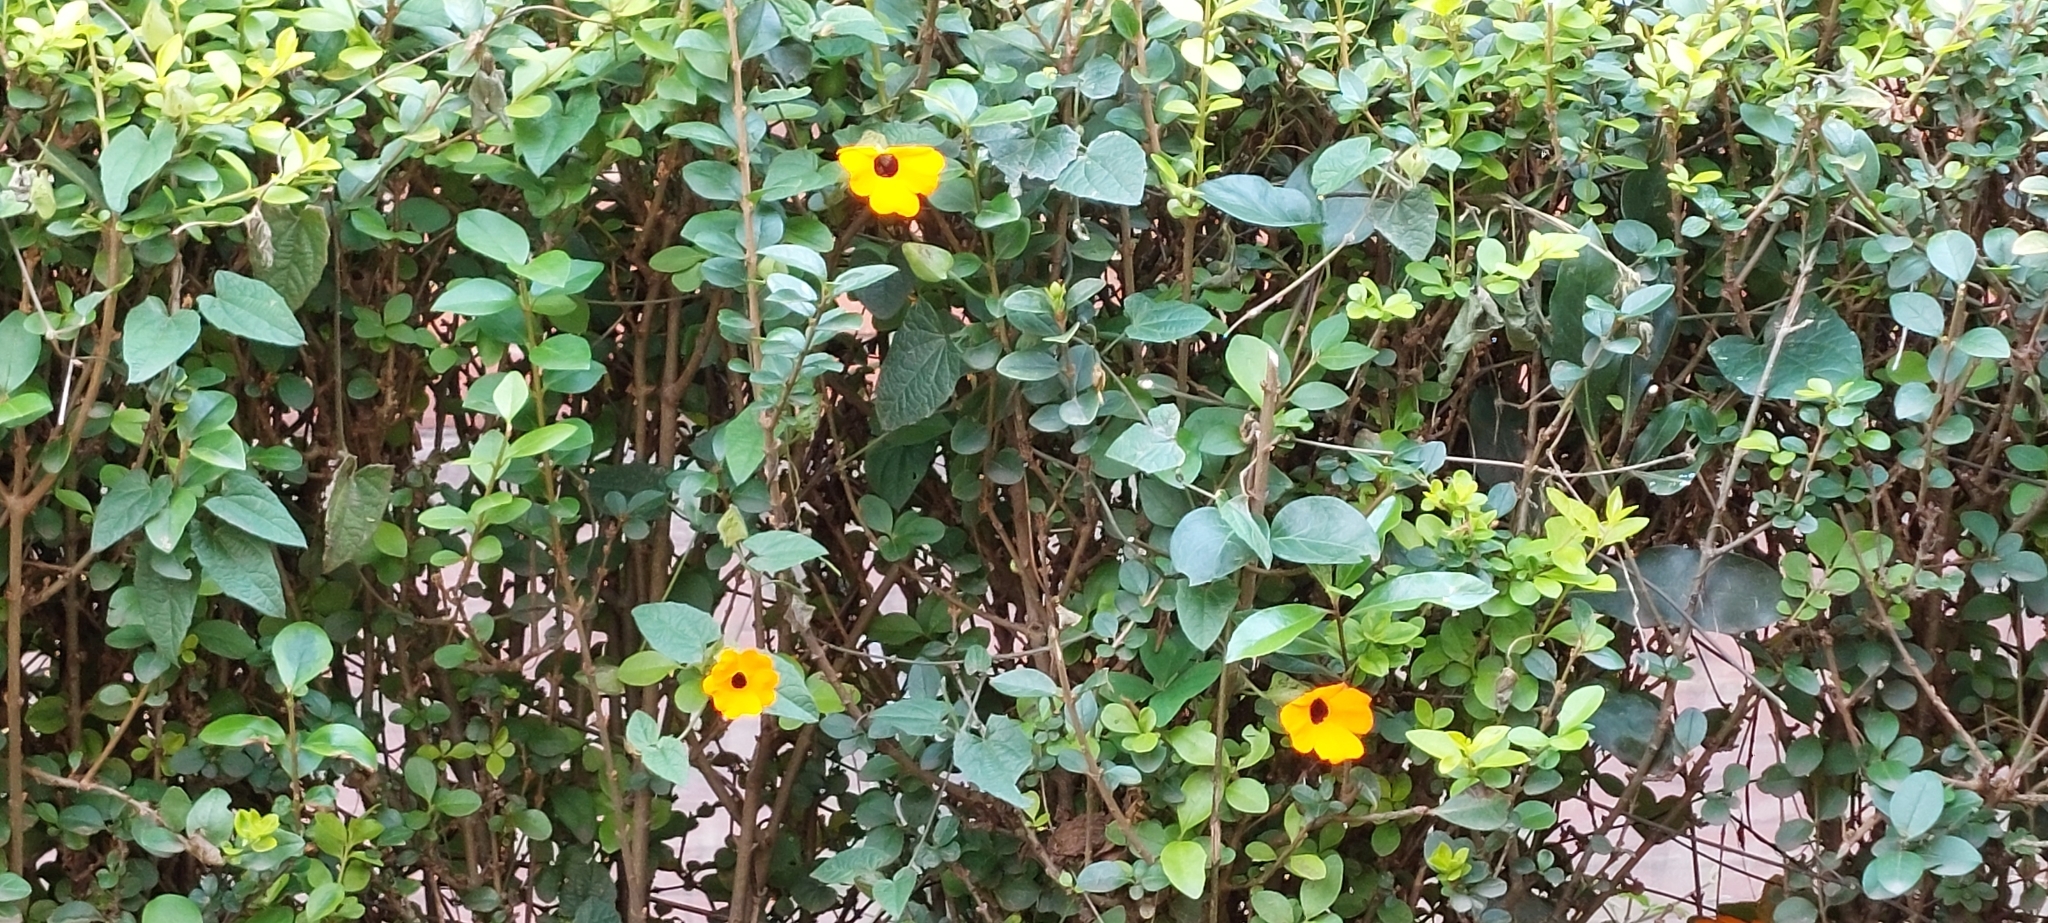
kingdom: Plantae
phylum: Tracheophyta
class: Magnoliopsida
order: Lamiales
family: Acanthaceae
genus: Thunbergia
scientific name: Thunbergia alata
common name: Blackeyed susan vine
